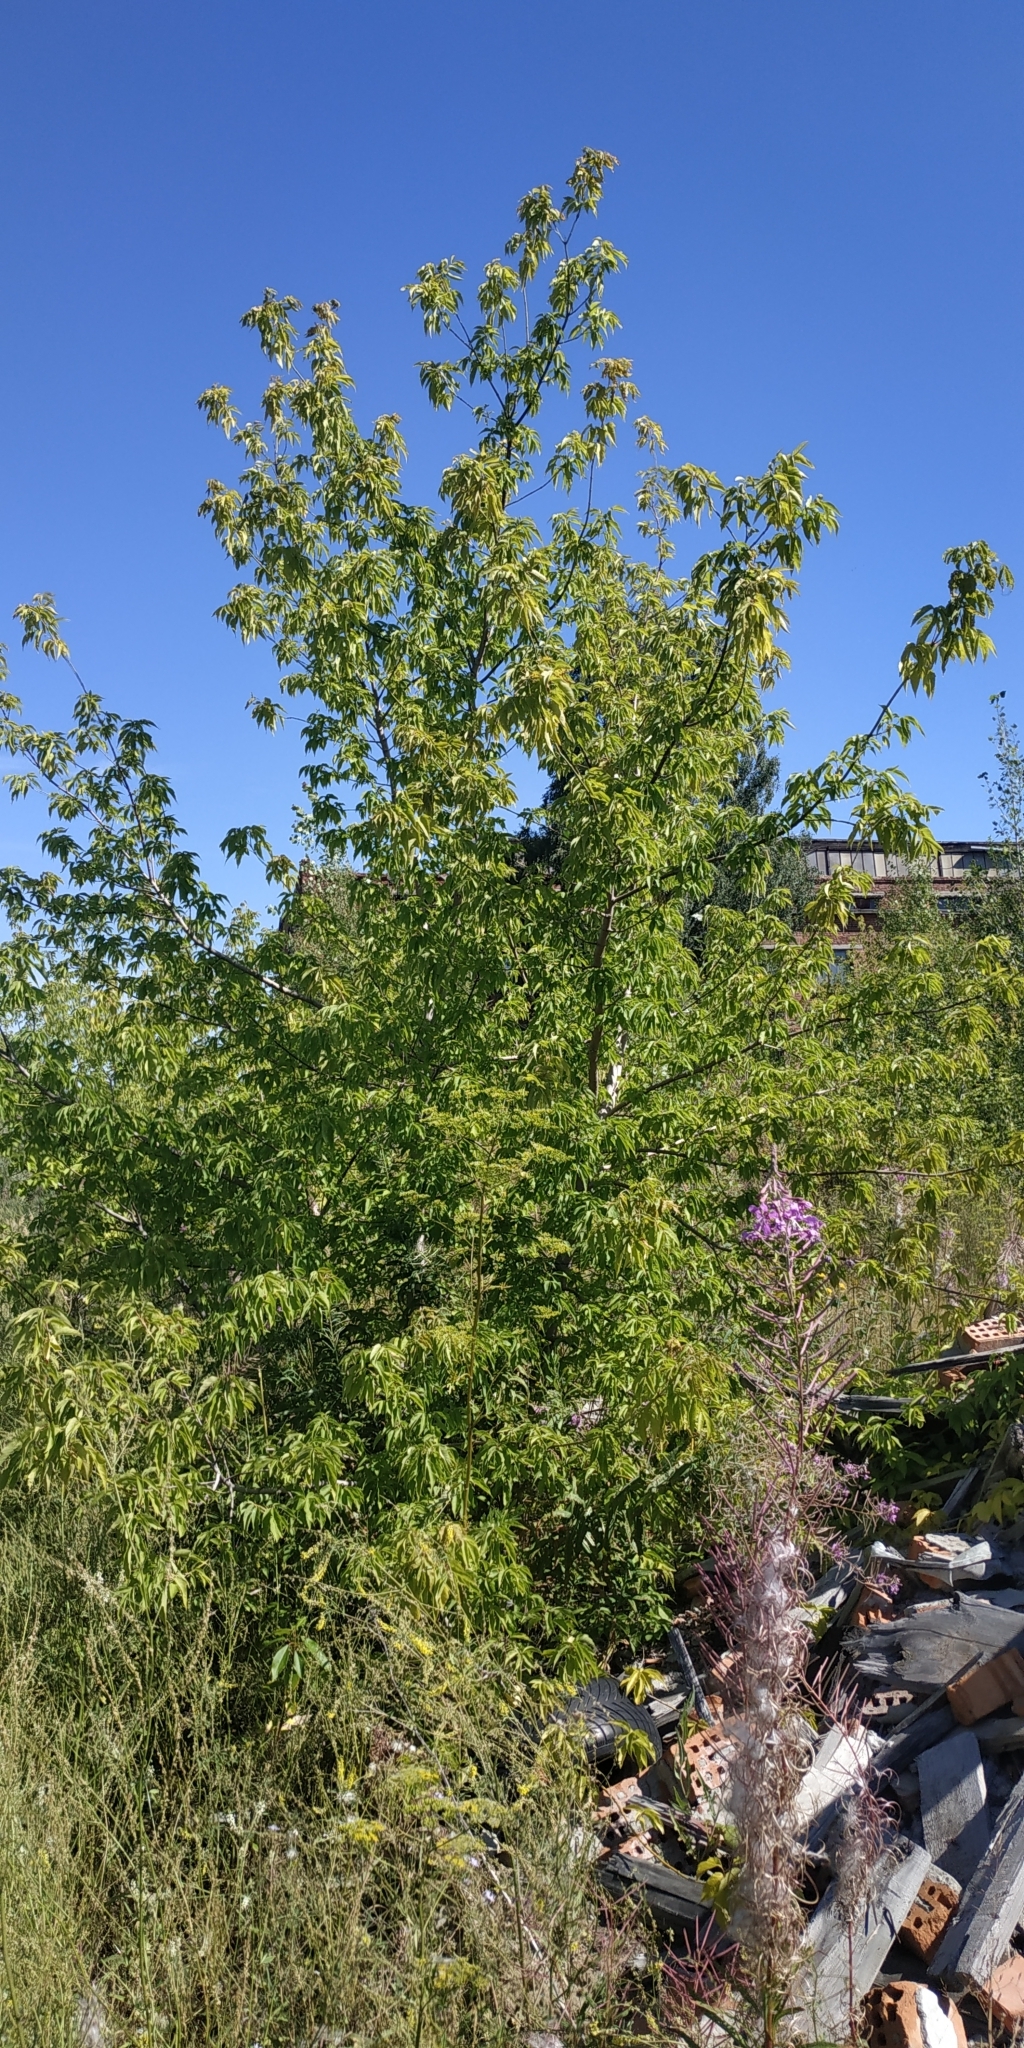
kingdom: Plantae
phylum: Tracheophyta
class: Magnoliopsida
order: Sapindales
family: Sapindaceae
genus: Acer
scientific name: Acer negundo
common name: Ashleaf maple
